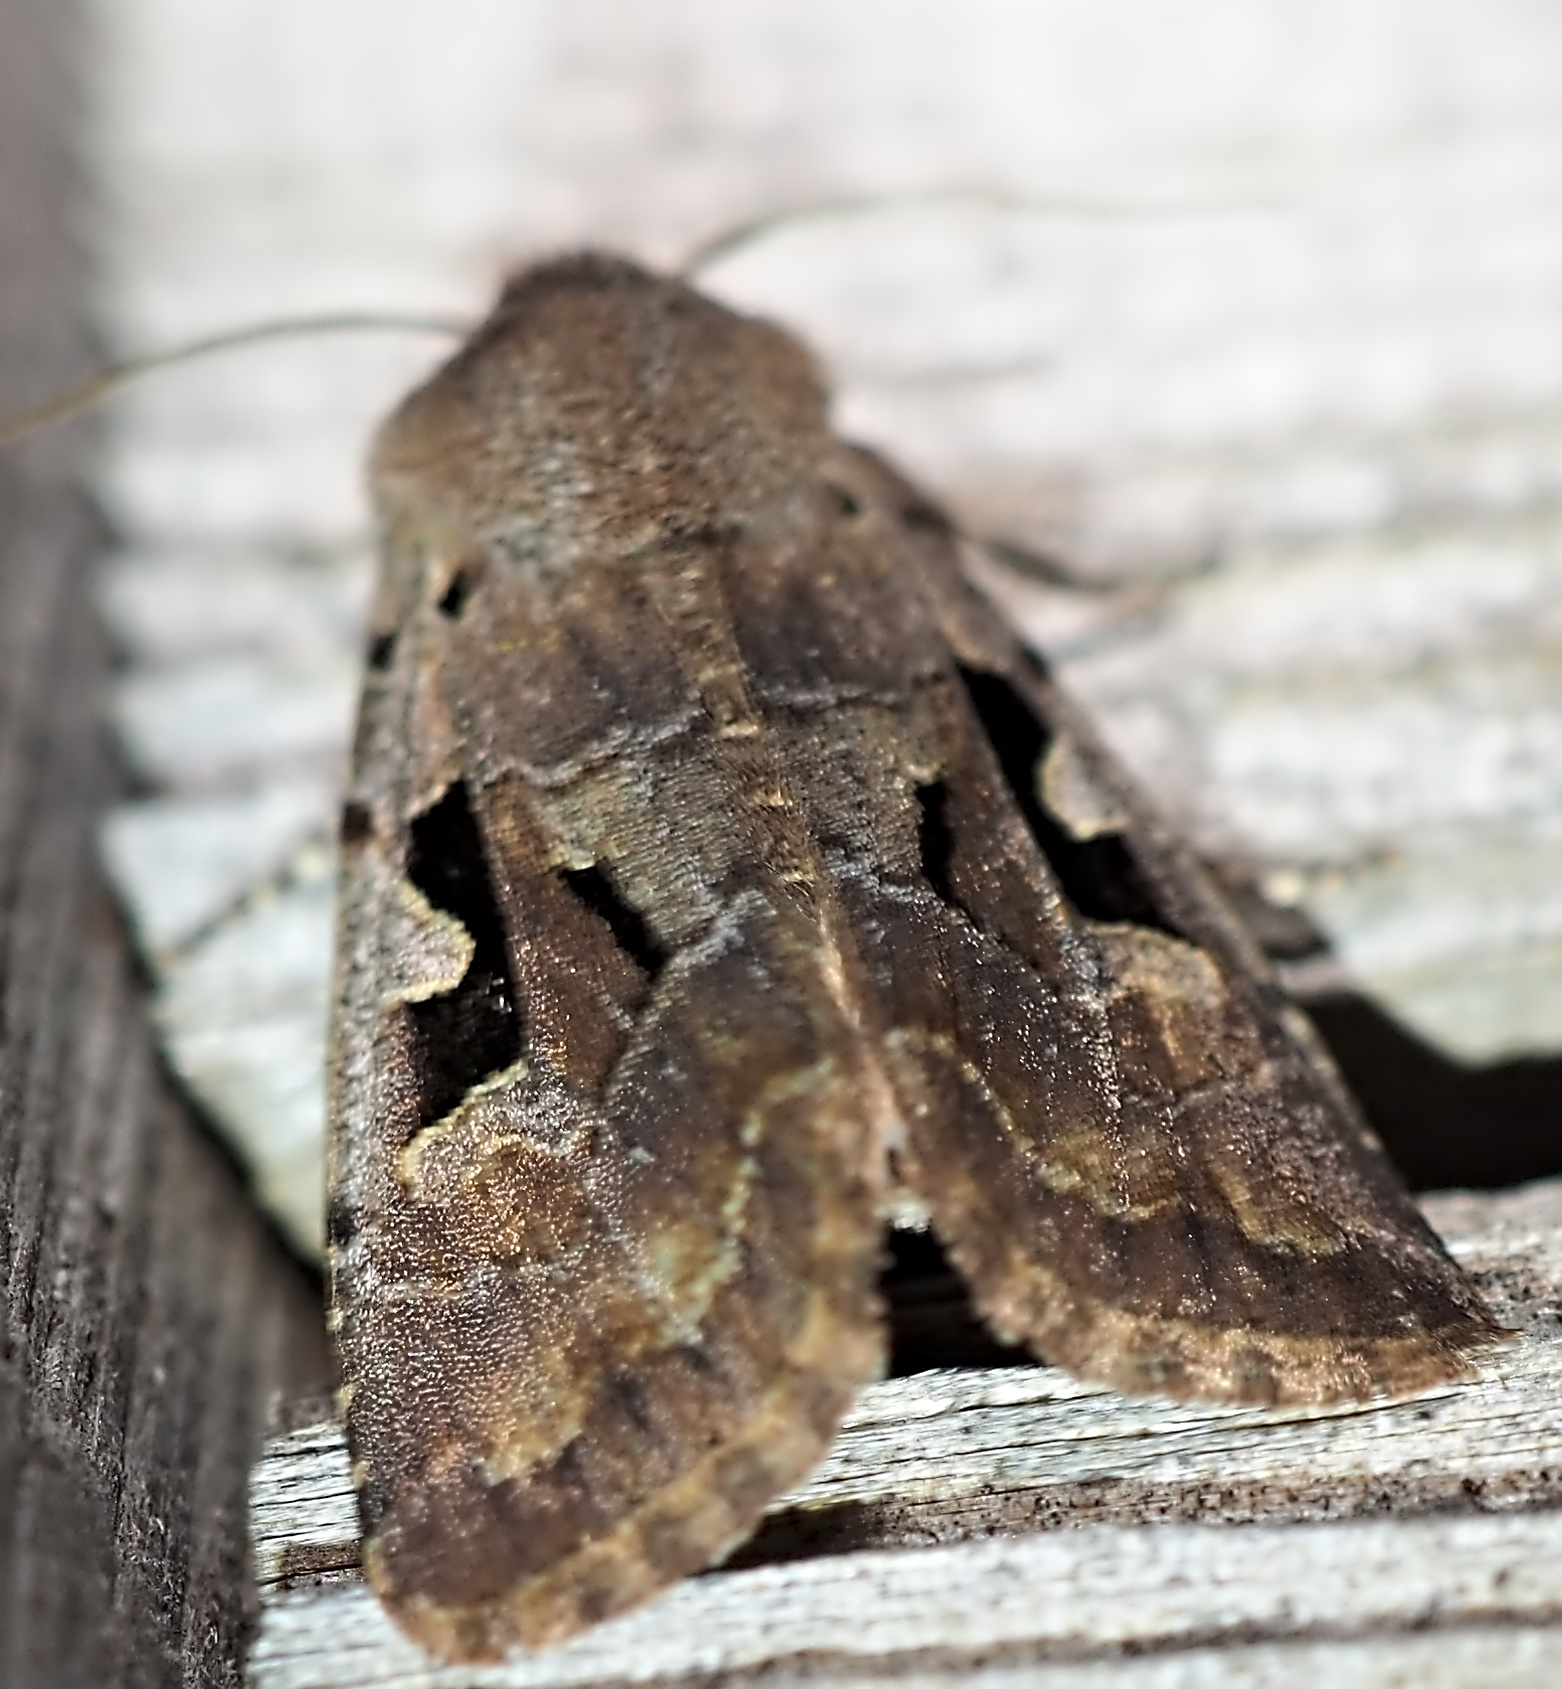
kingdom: Animalia
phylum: Arthropoda
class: Insecta
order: Lepidoptera
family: Noctuidae
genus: Orthosia
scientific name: Orthosia gothica
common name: Hebrew character
